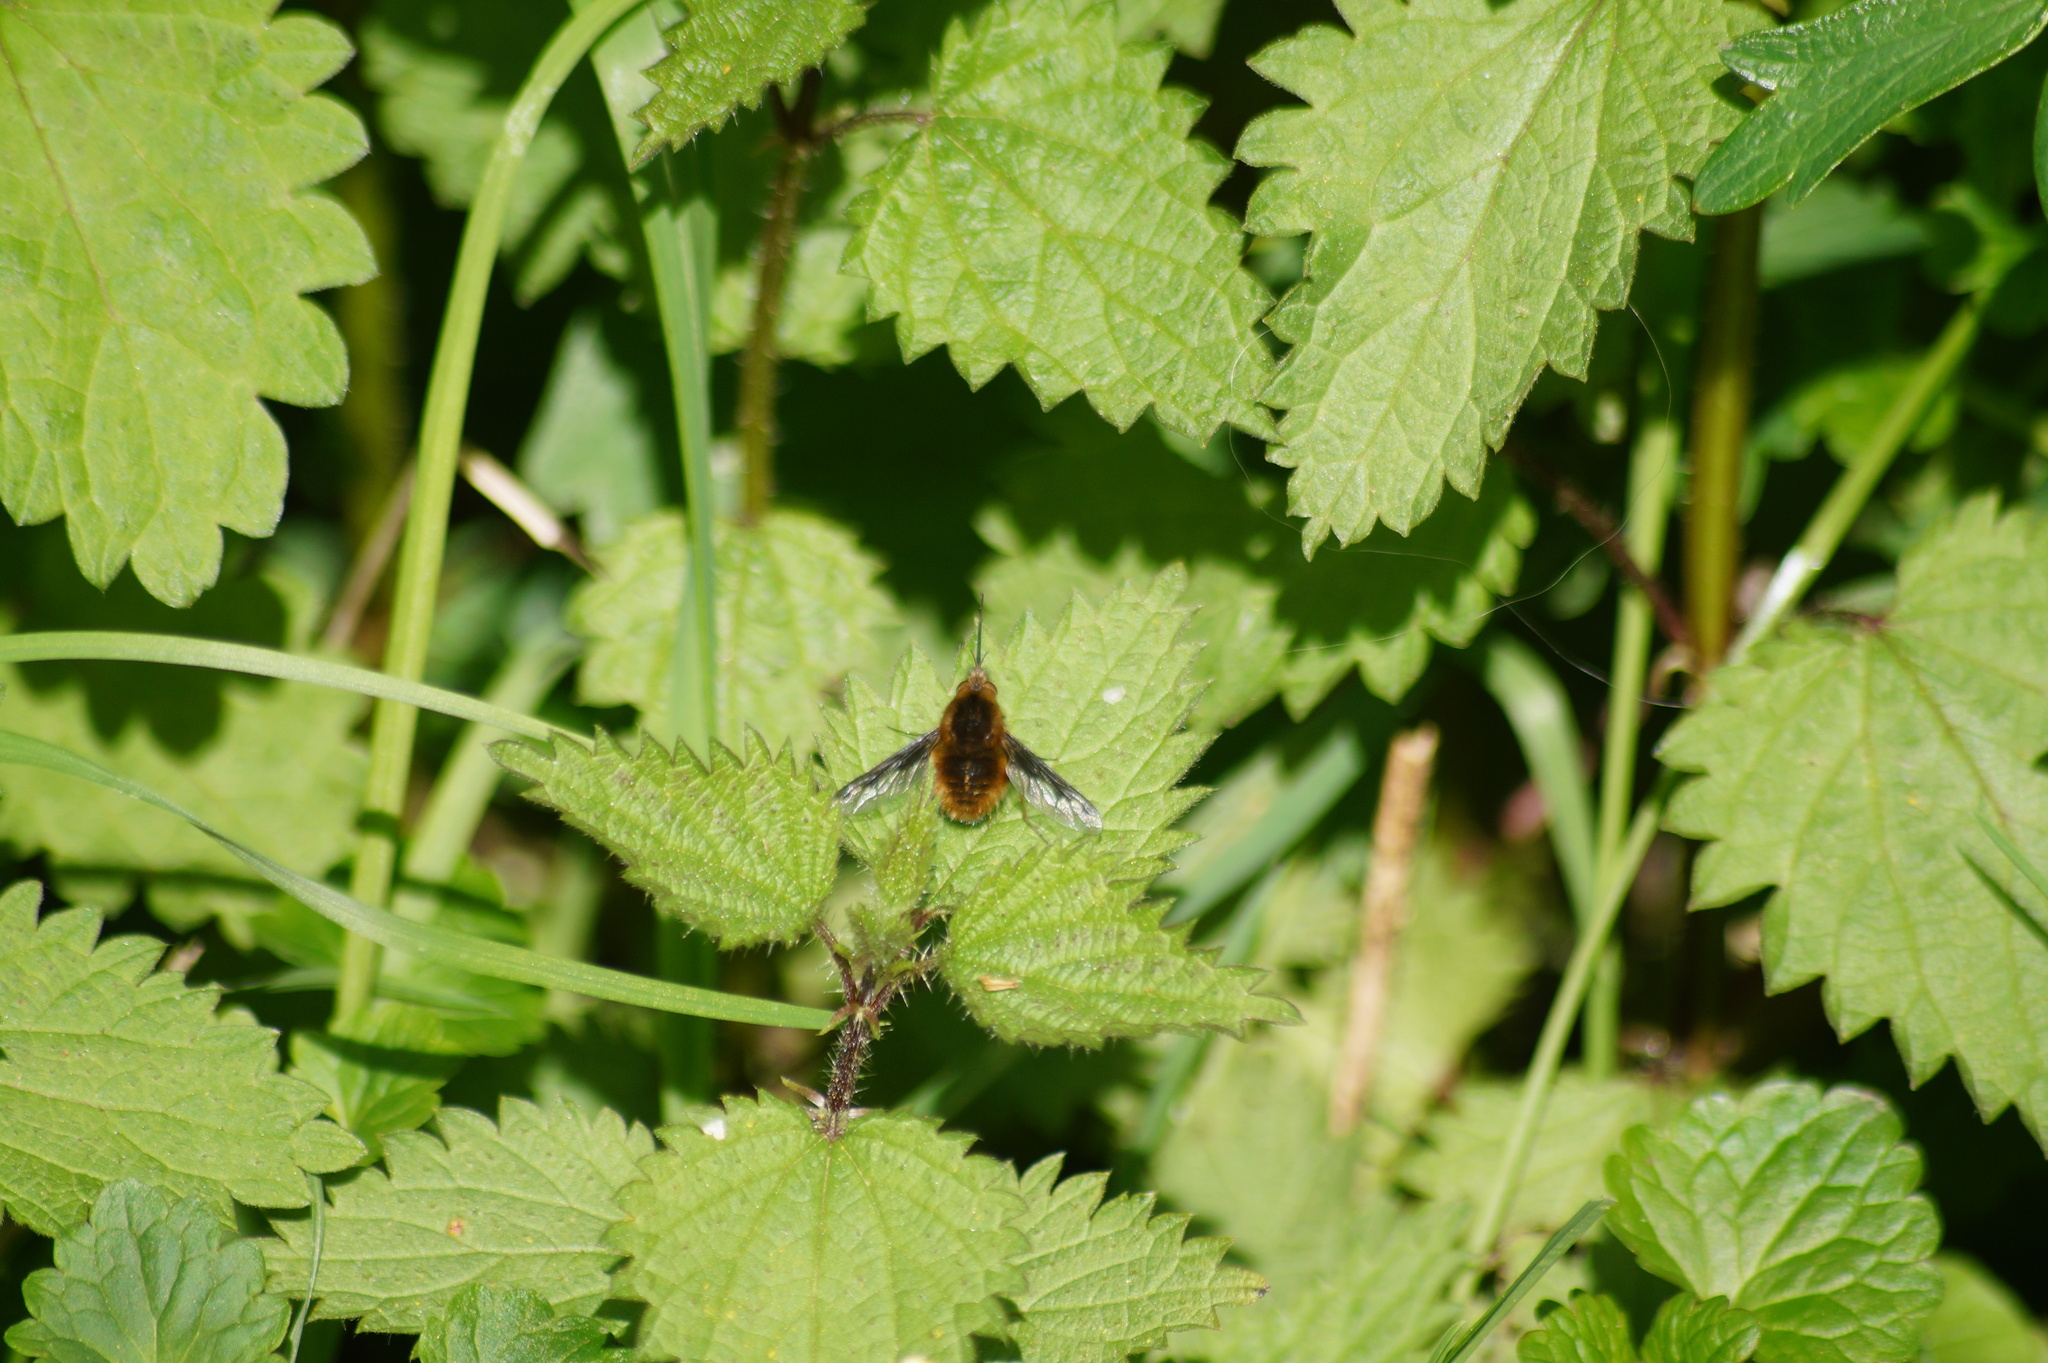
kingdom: Animalia
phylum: Arthropoda
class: Insecta
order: Diptera
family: Bombyliidae
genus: Bombylius
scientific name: Bombylius major
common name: Bee fly
